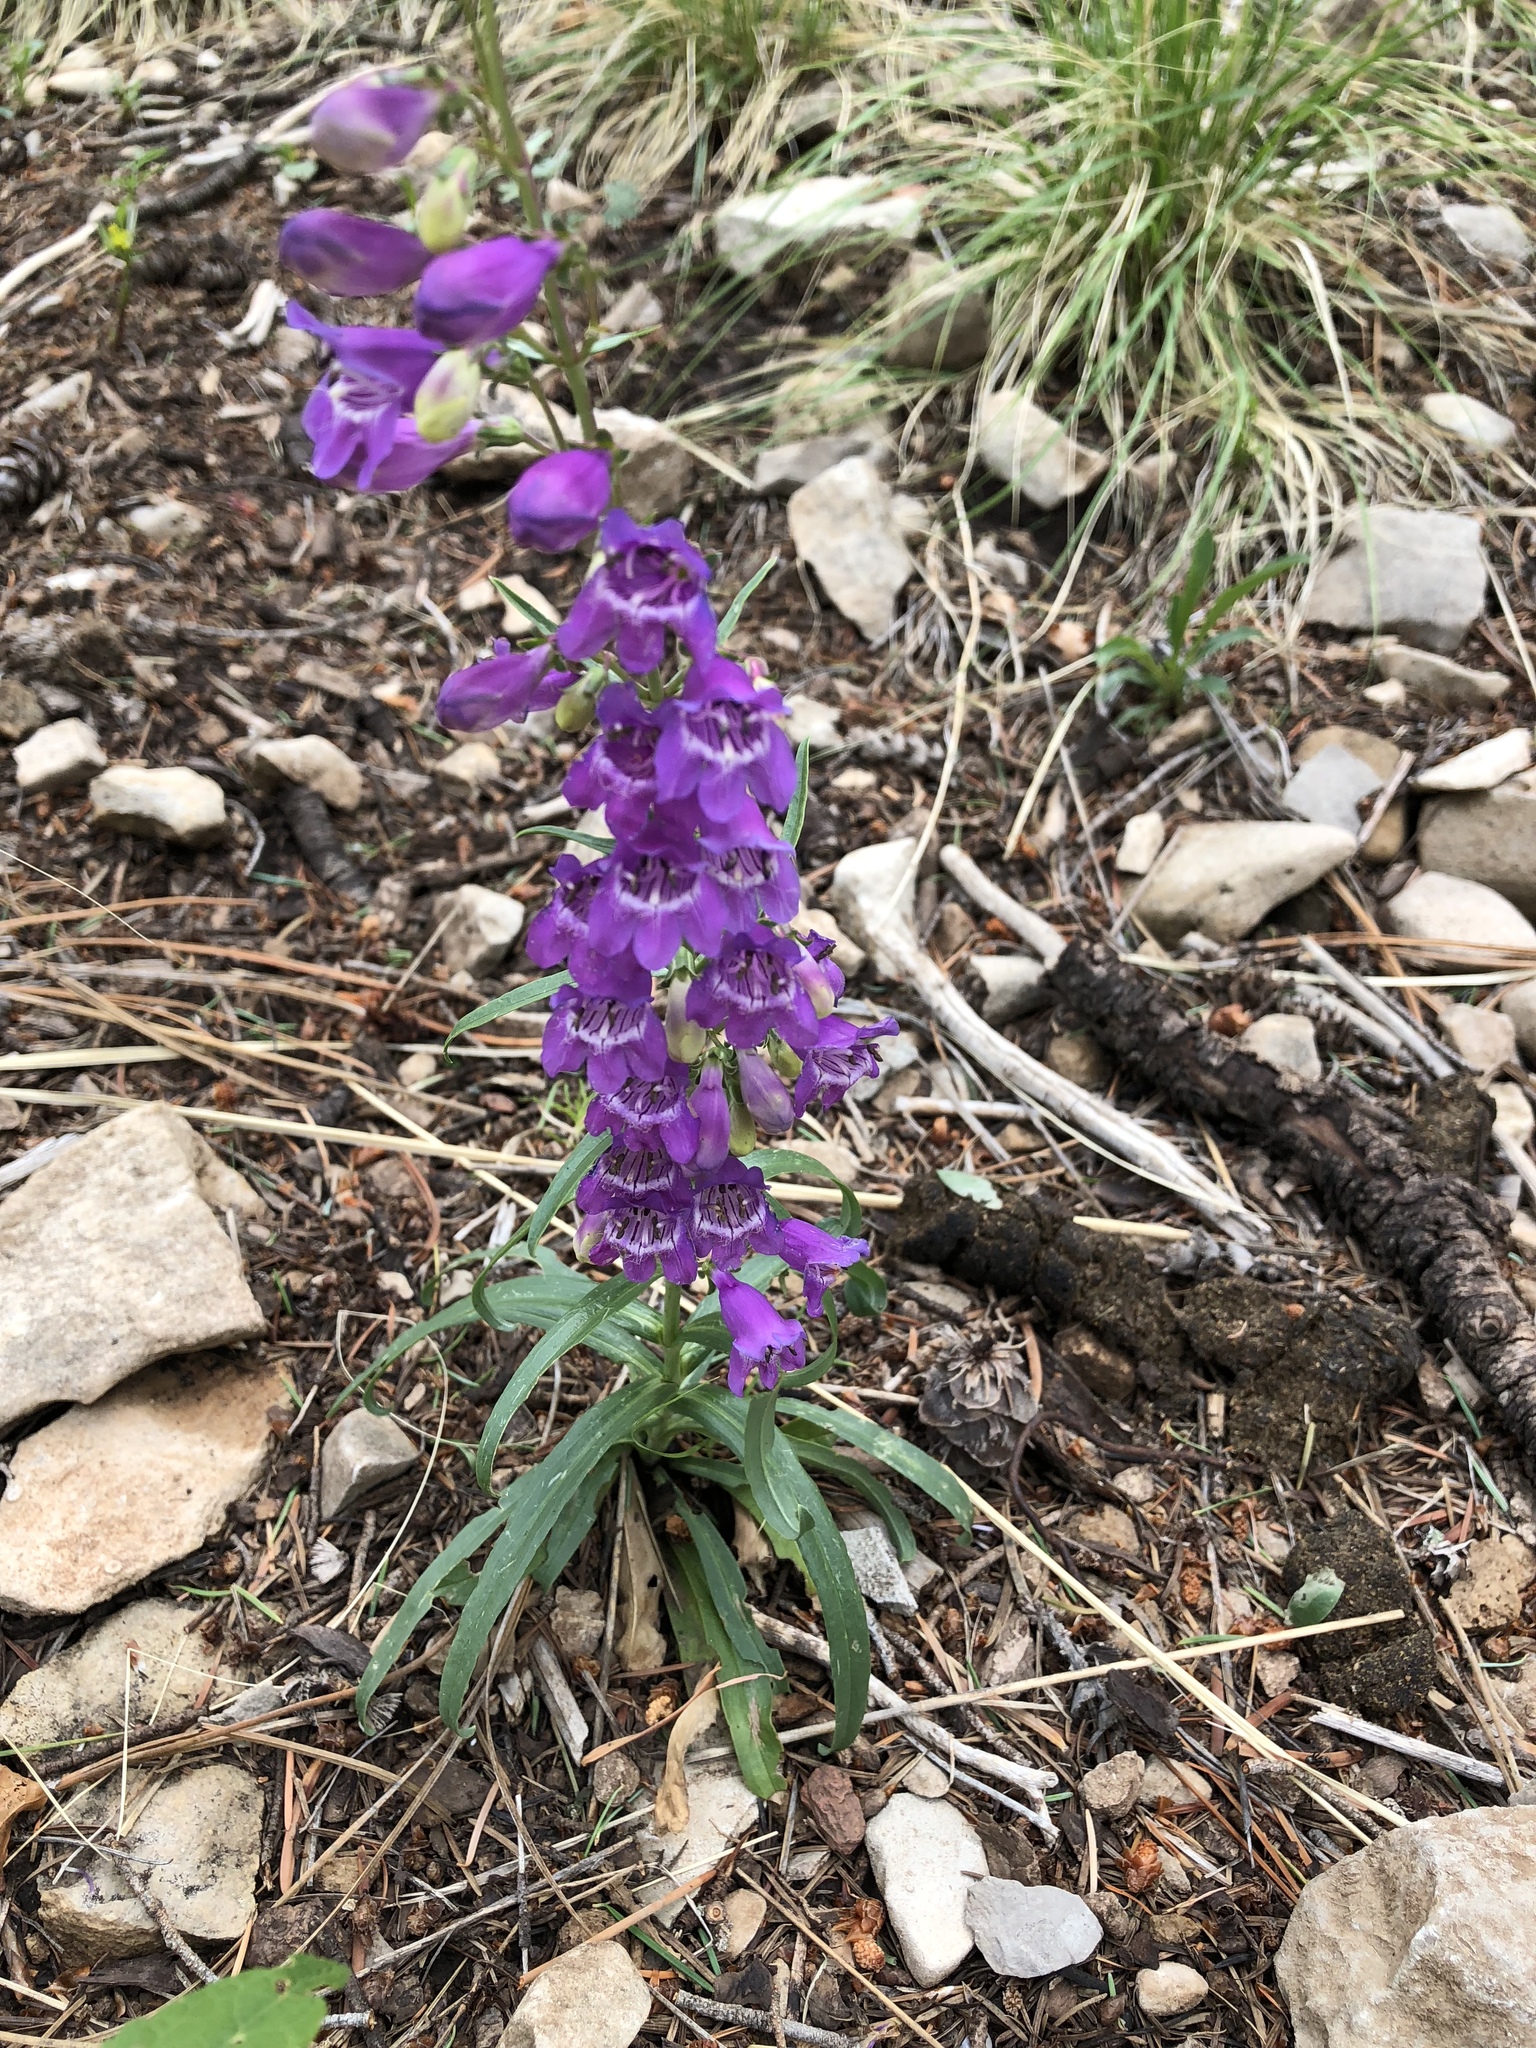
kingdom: Plantae
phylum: Tracheophyta
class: Magnoliopsida
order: Lamiales
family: Plantaginaceae
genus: Penstemon
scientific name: Penstemon neomexicanus
